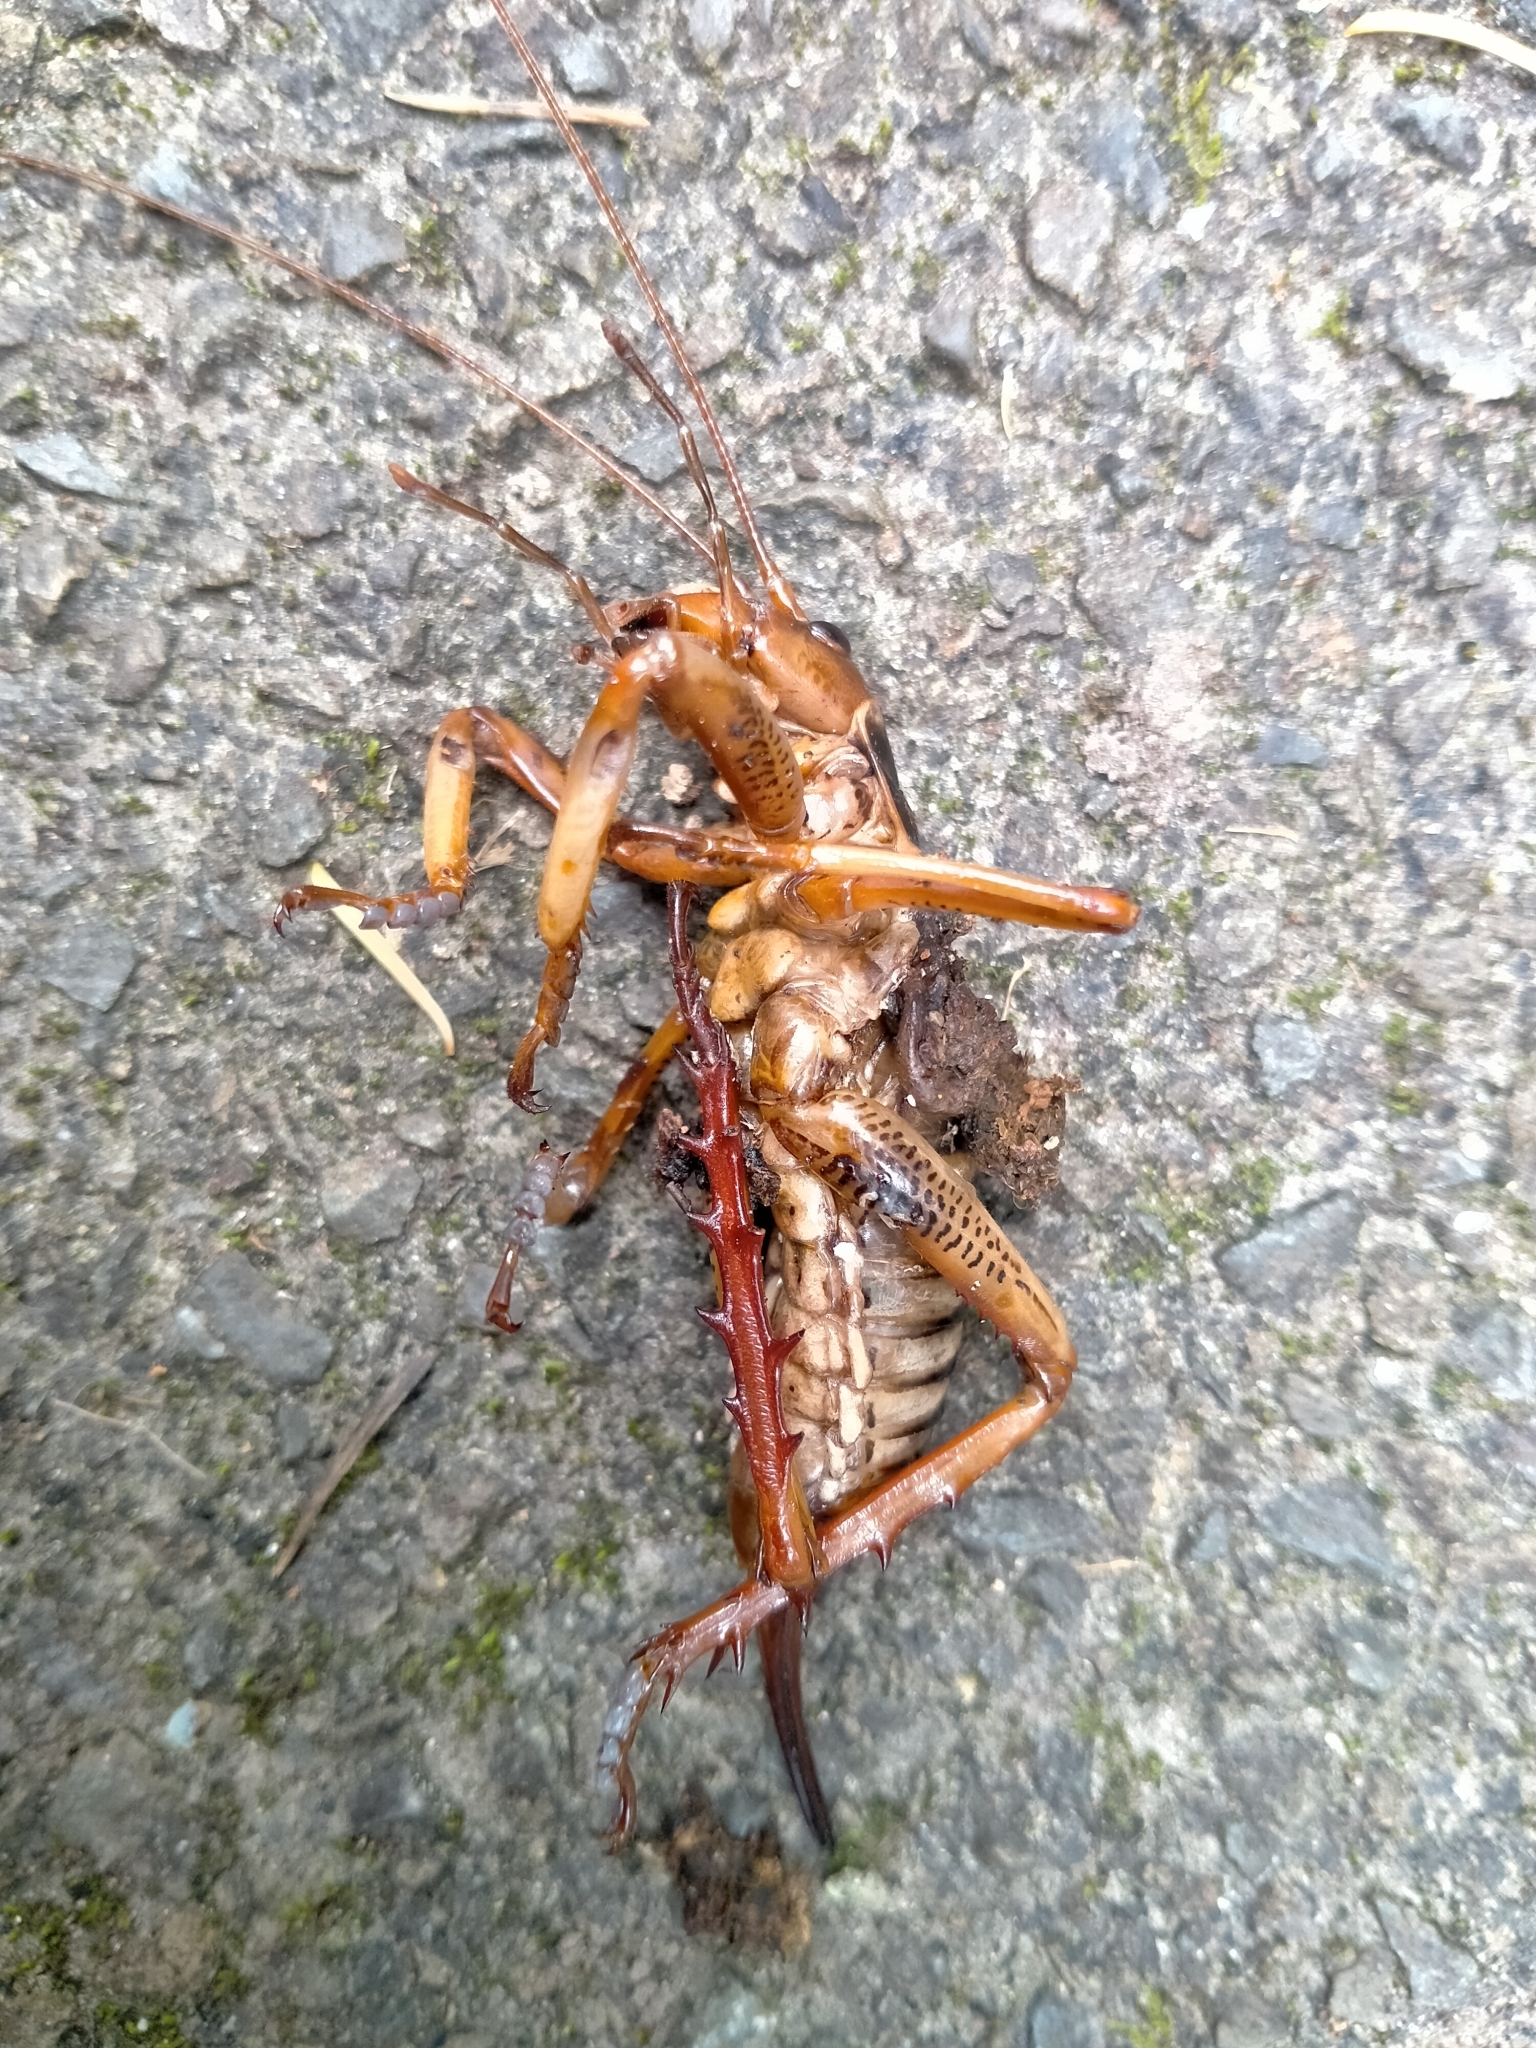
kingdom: Animalia
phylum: Arthropoda
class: Insecta
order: Orthoptera
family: Anostostomatidae
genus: Hemideina
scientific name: Hemideina crassidens
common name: Wellington tree weta
